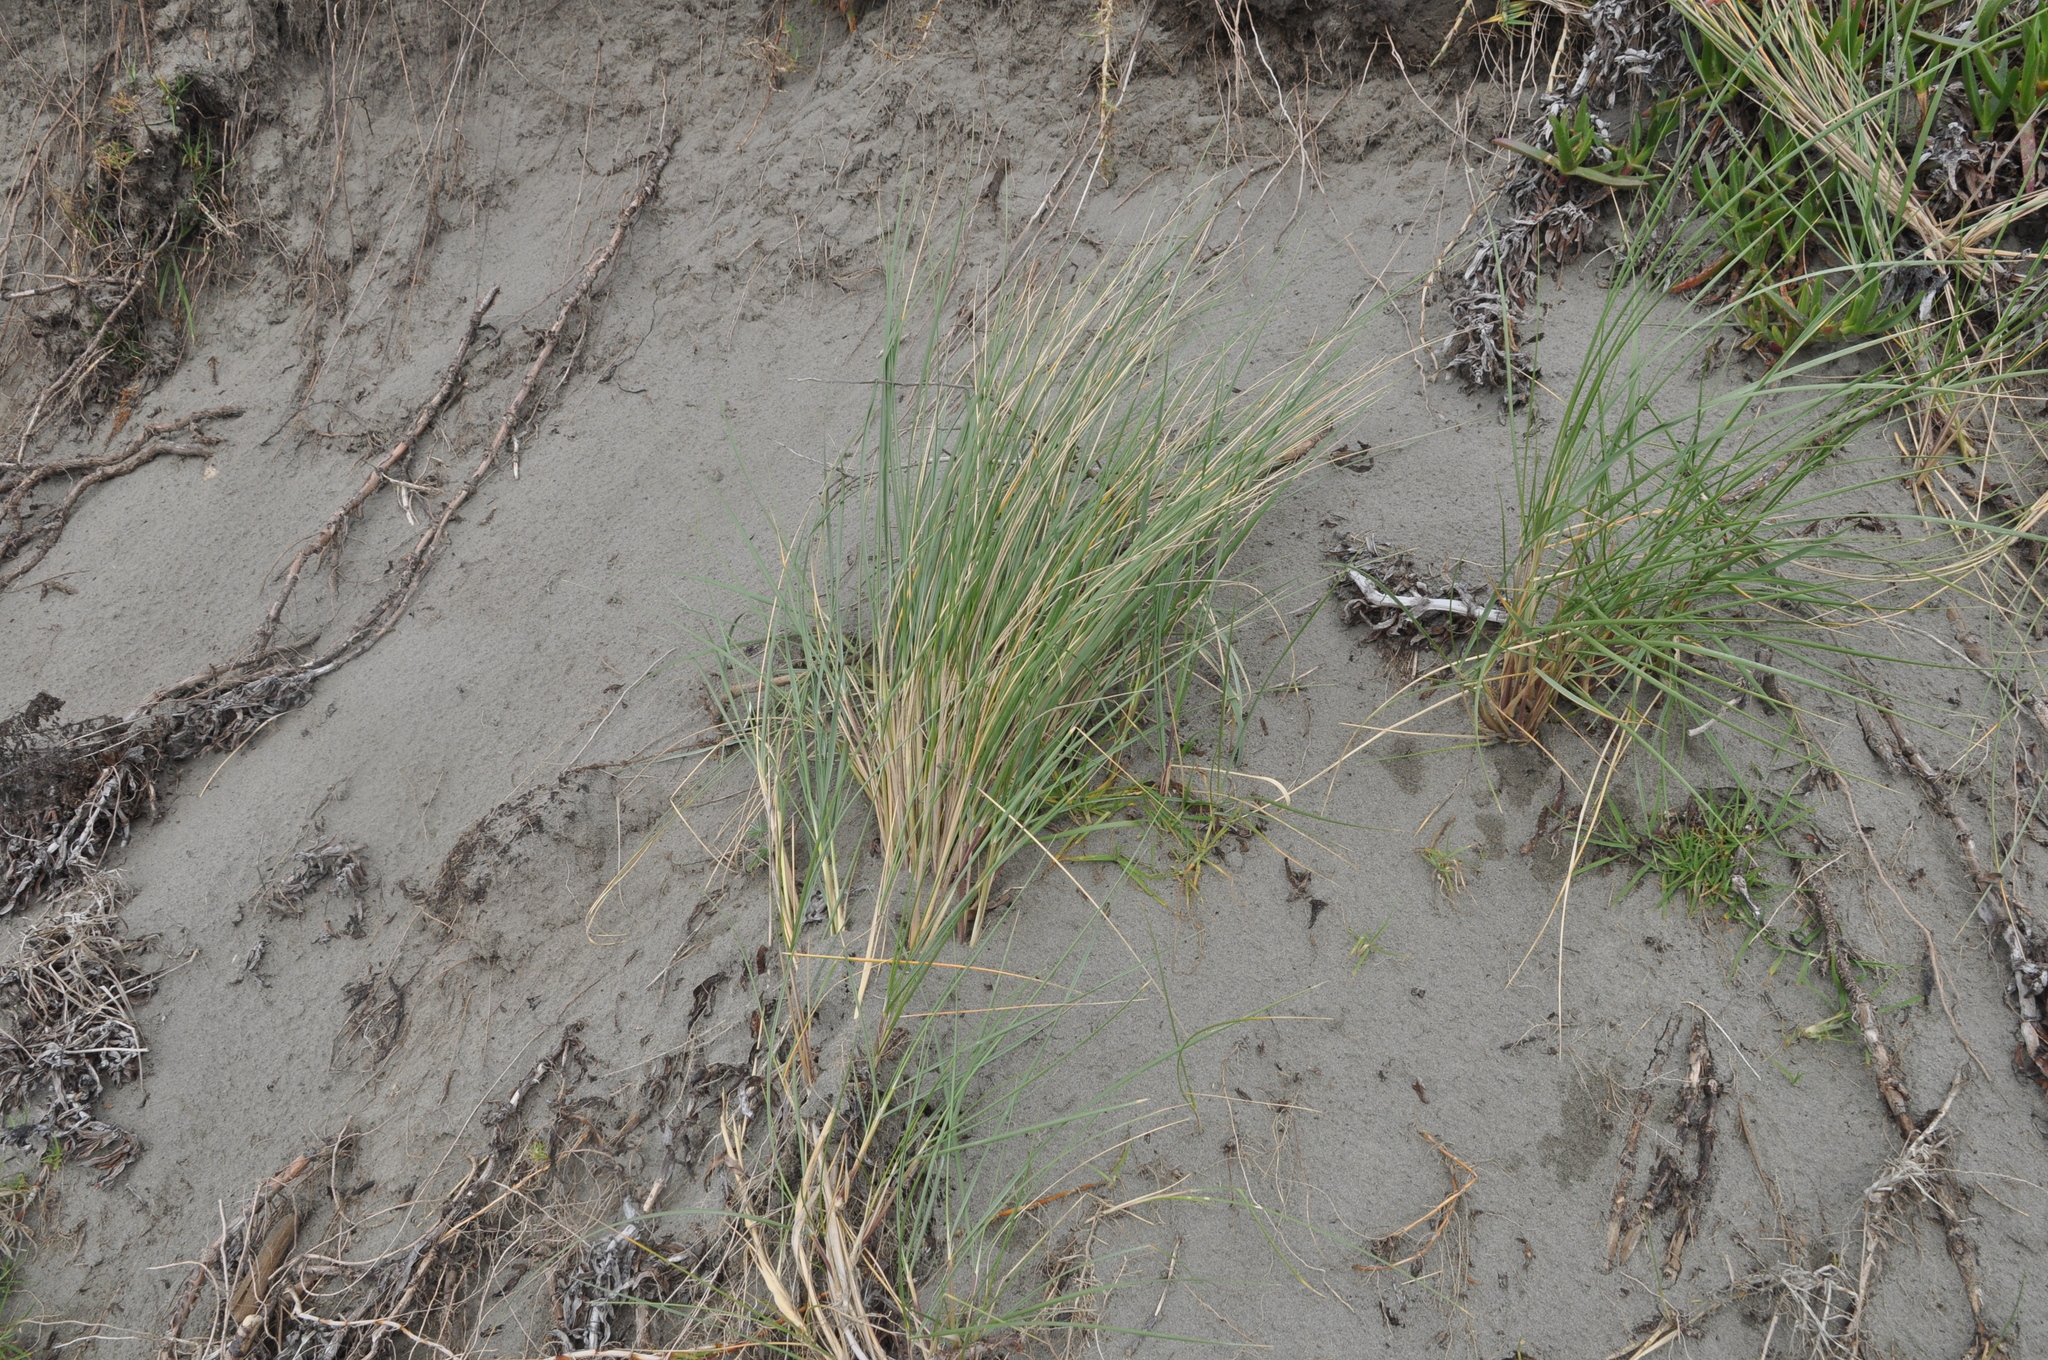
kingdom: Plantae
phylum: Tracheophyta
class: Liliopsida
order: Poales
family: Poaceae
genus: Calamagrostis
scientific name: Calamagrostis arenaria
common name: European beachgrass
